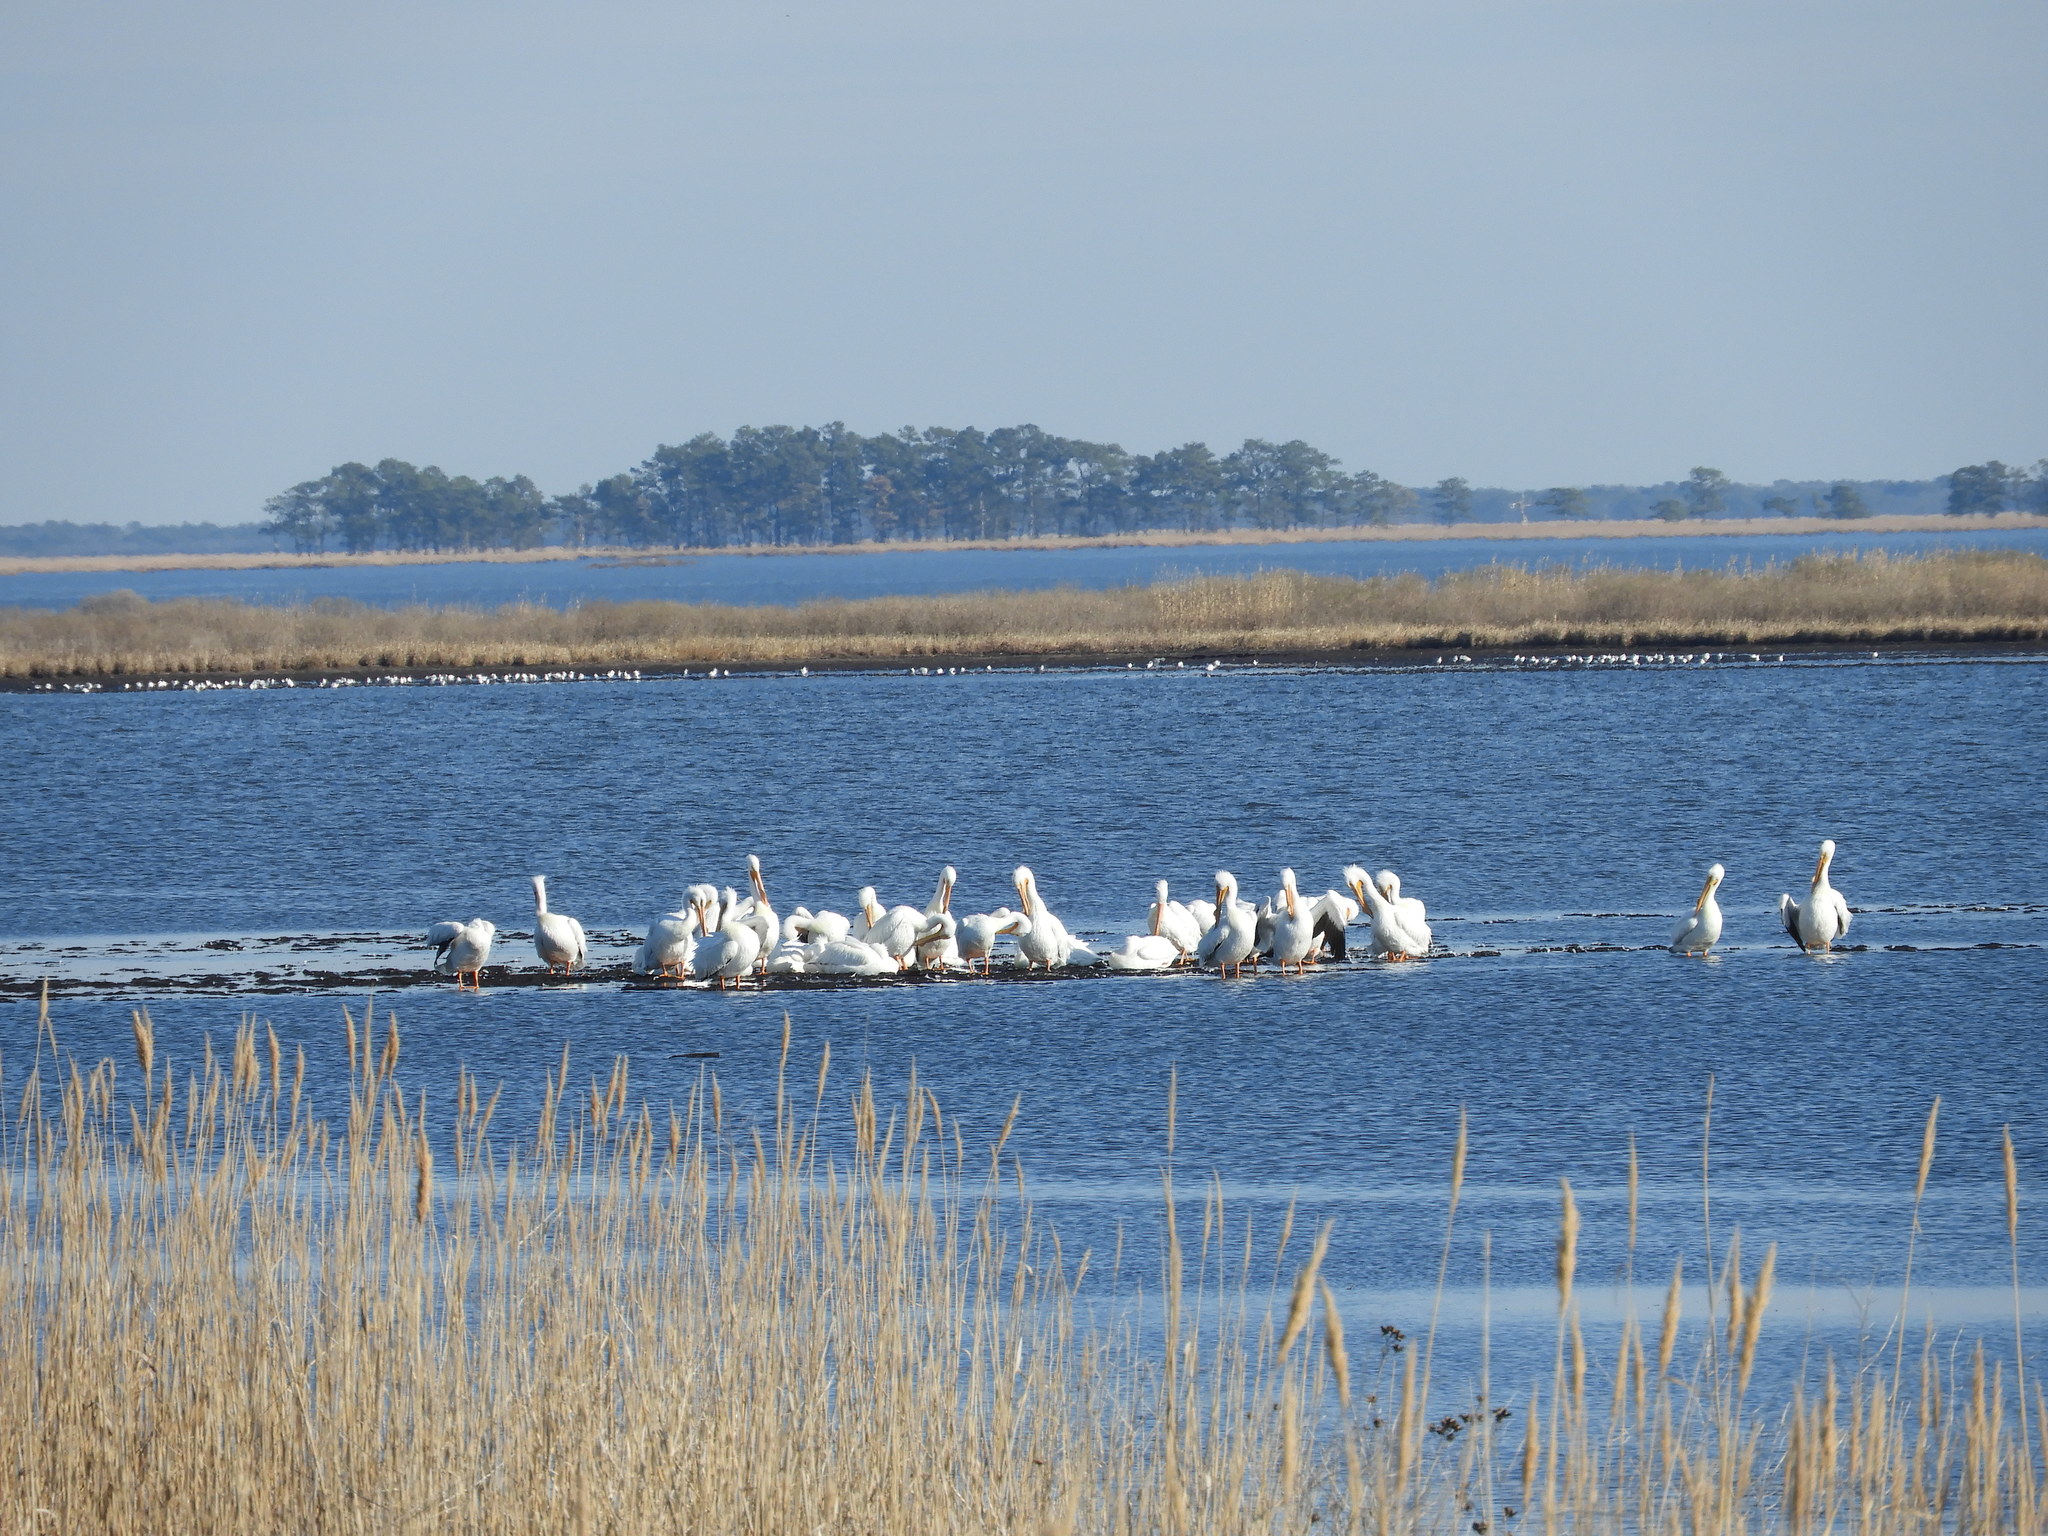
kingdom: Animalia
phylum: Chordata
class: Aves
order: Pelecaniformes
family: Pelecanidae
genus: Pelecanus
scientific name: Pelecanus erythrorhynchos
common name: American white pelican
